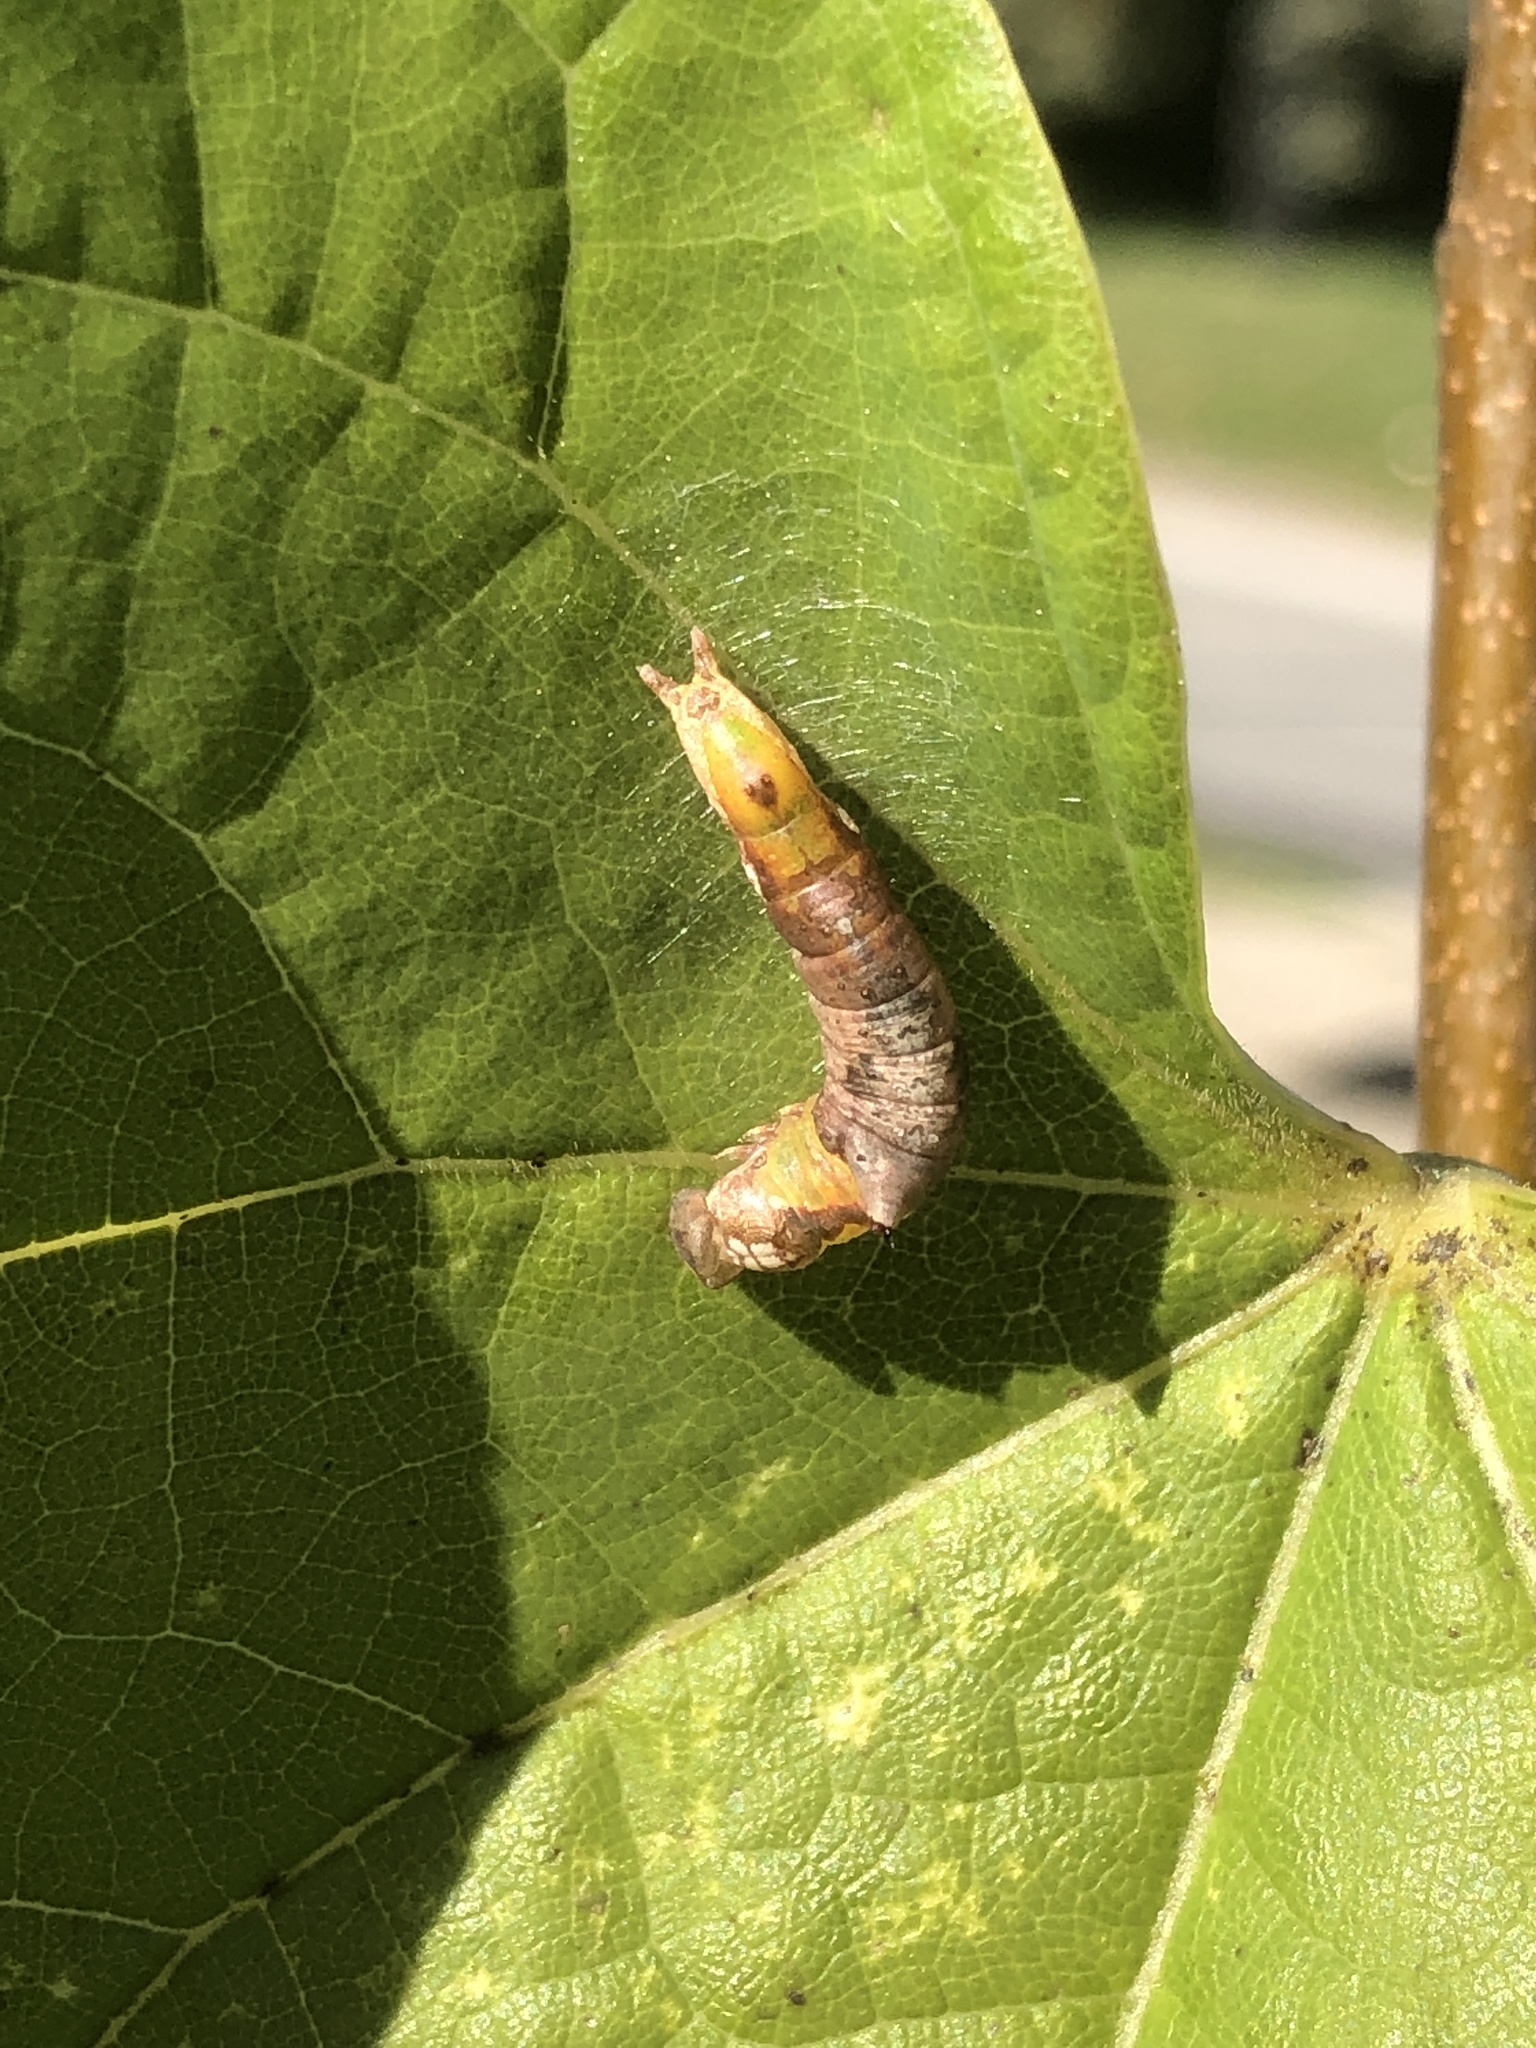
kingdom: Animalia
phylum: Arthropoda
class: Insecta
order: Lepidoptera
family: Notodontidae
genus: Oligocentria
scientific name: Oligocentria Ianassa lignicolor
